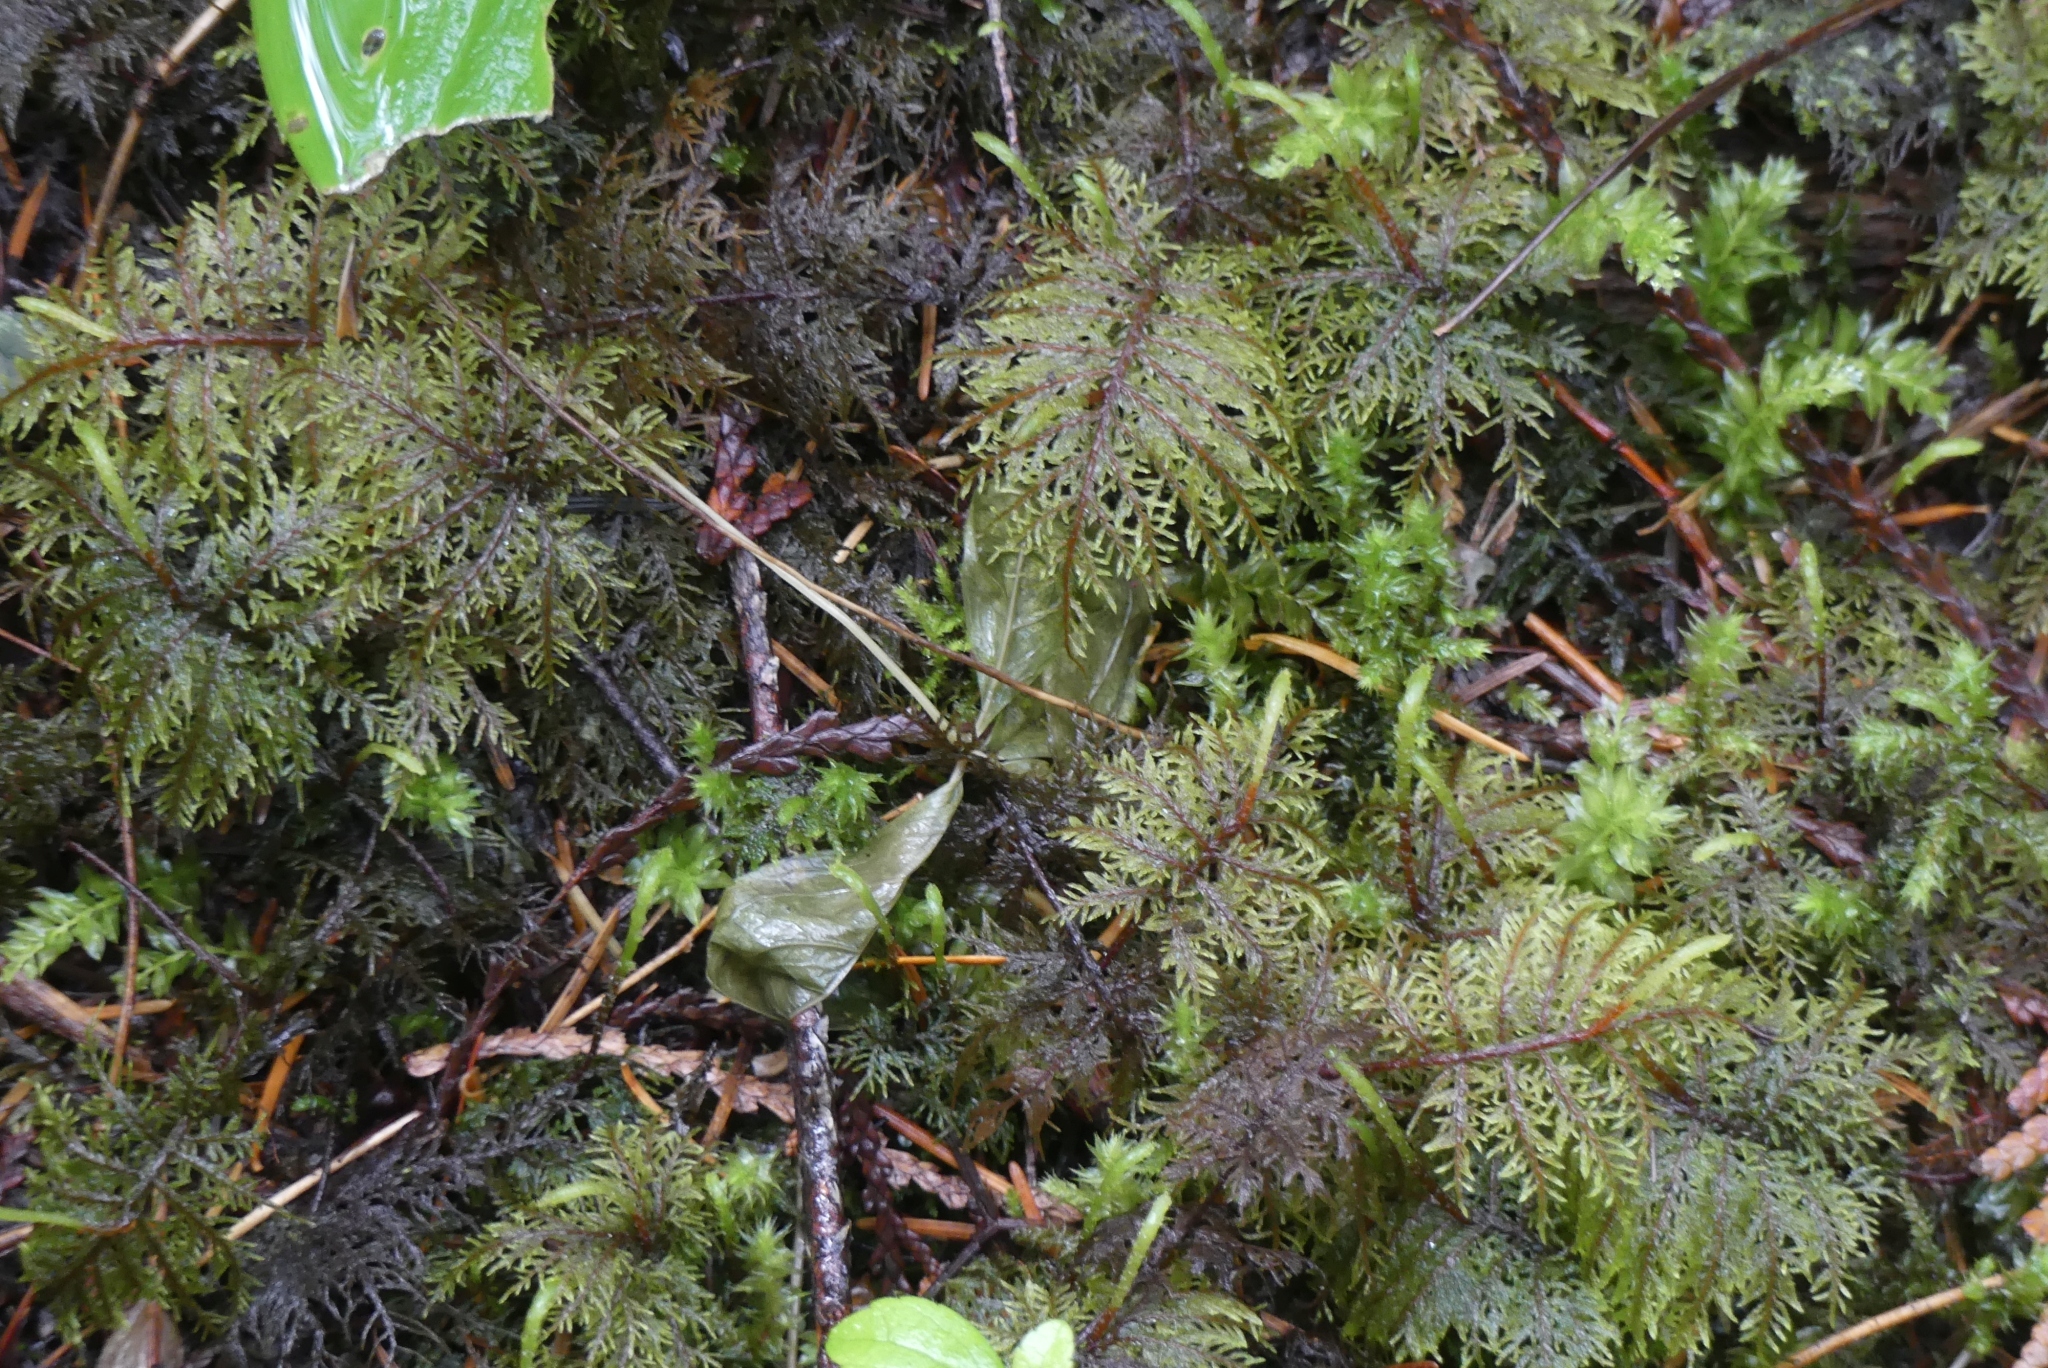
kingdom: Plantae
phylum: Bryophyta
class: Bryopsida
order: Hypnales
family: Hylocomiaceae
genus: Hylocomium
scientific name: Hylocomium splendens
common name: Stairstep moss
